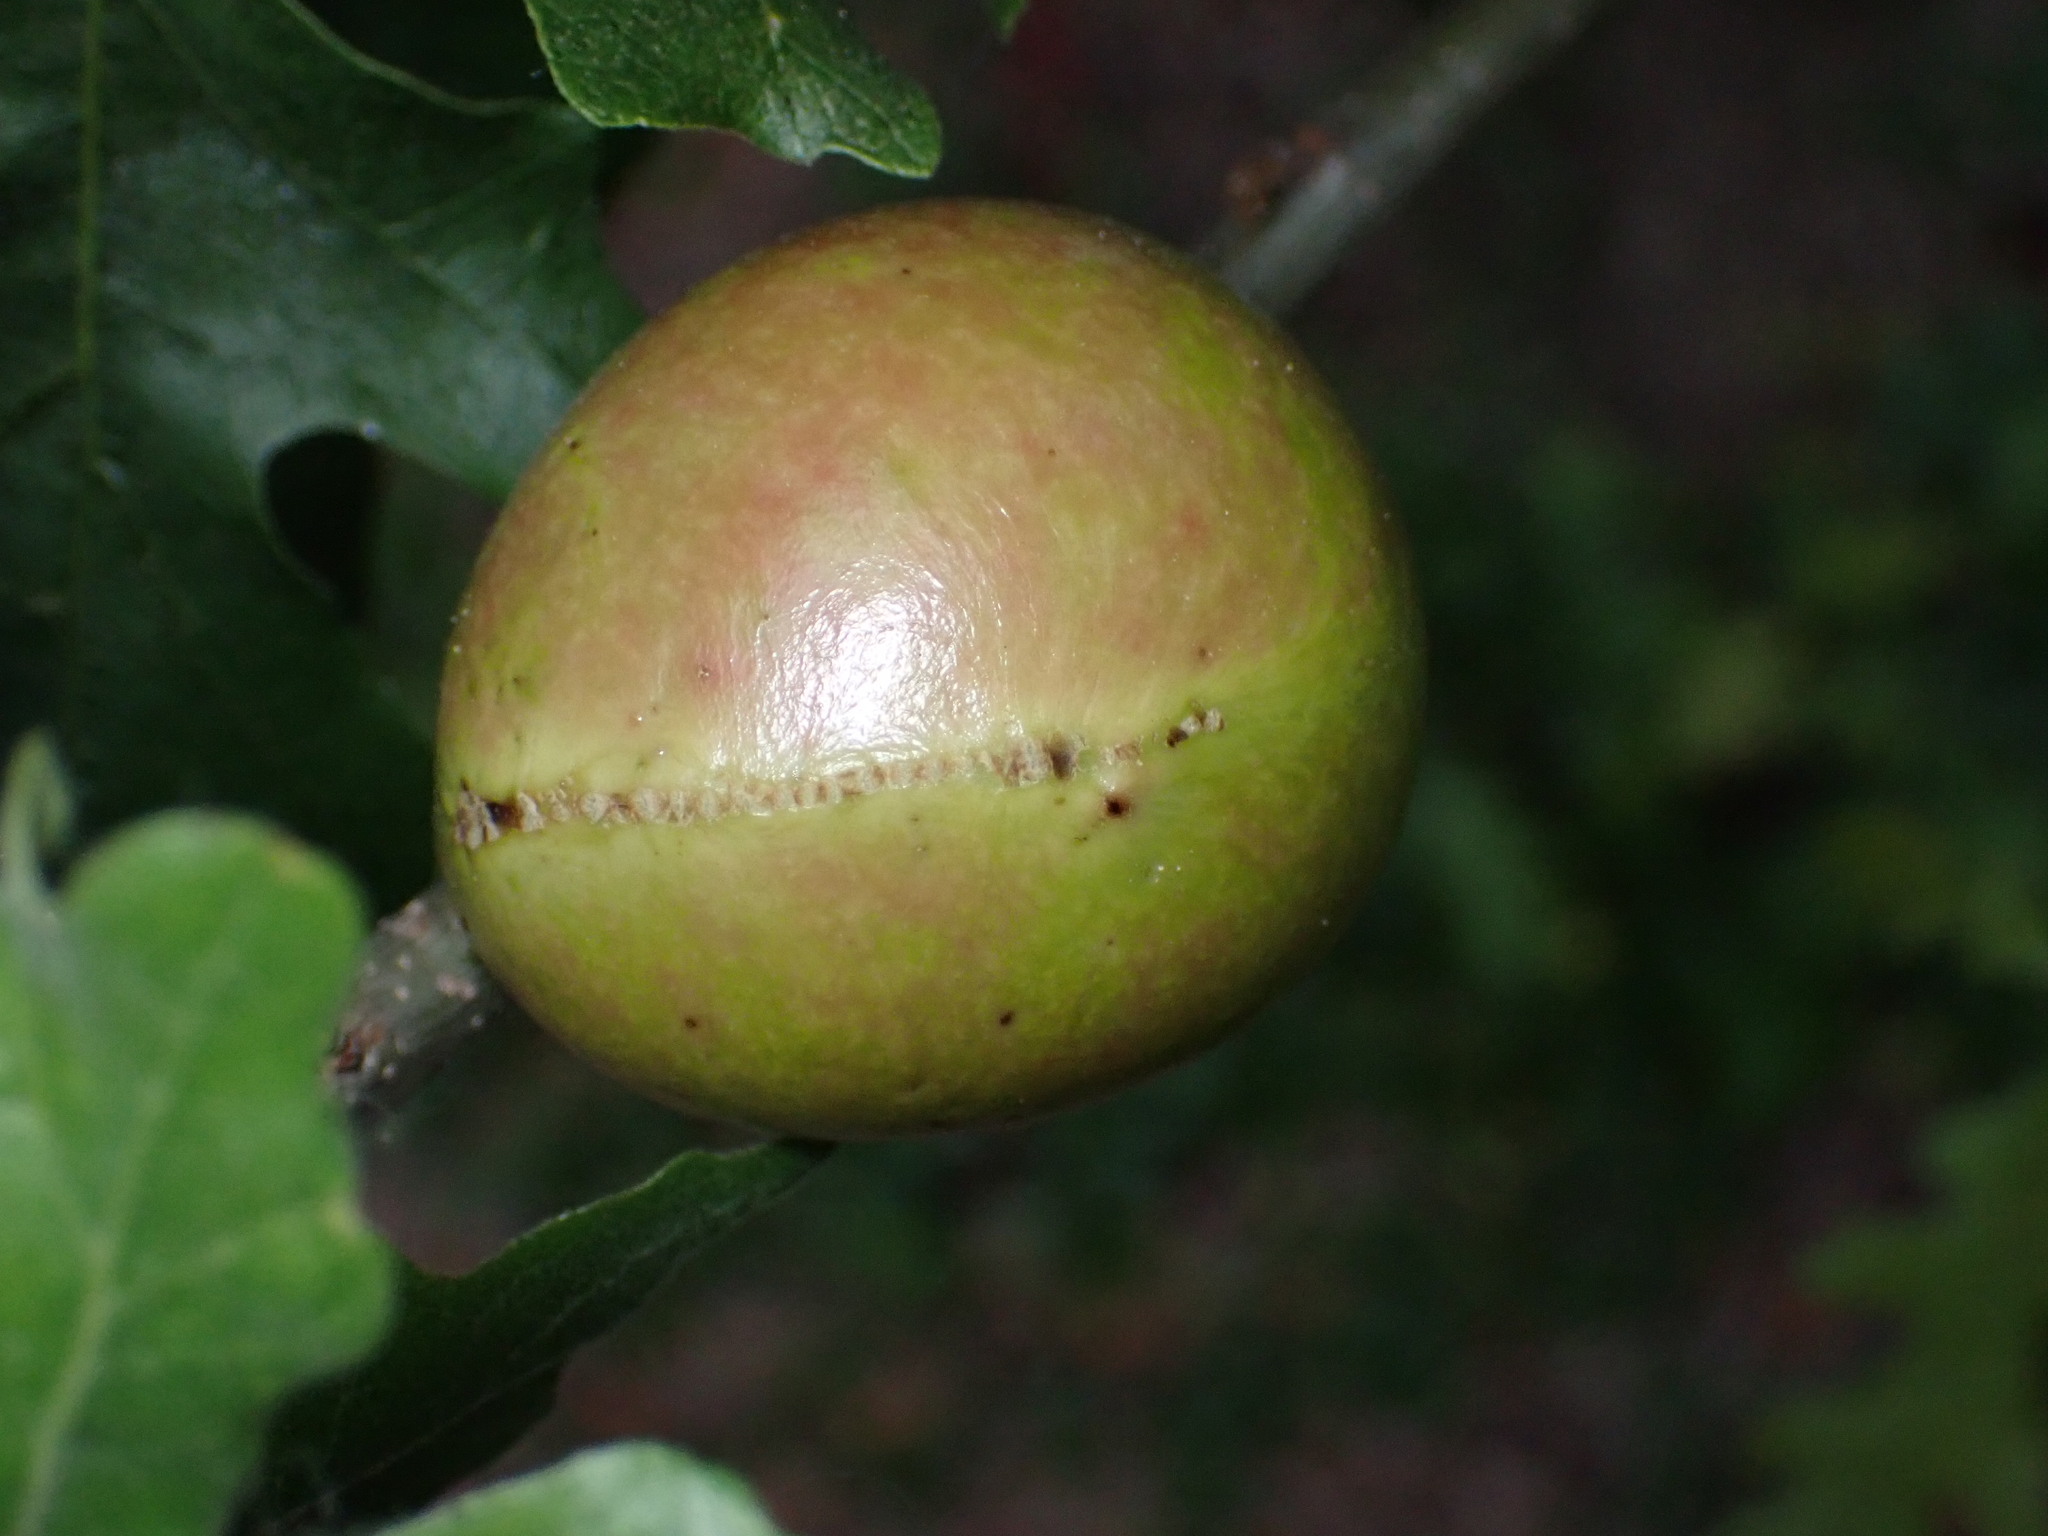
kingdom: Animalia
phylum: Arthropoda
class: Insecta
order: Hymenoptera
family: Cynipidae
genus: Andricus
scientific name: Andricus quercuscalifornicus
